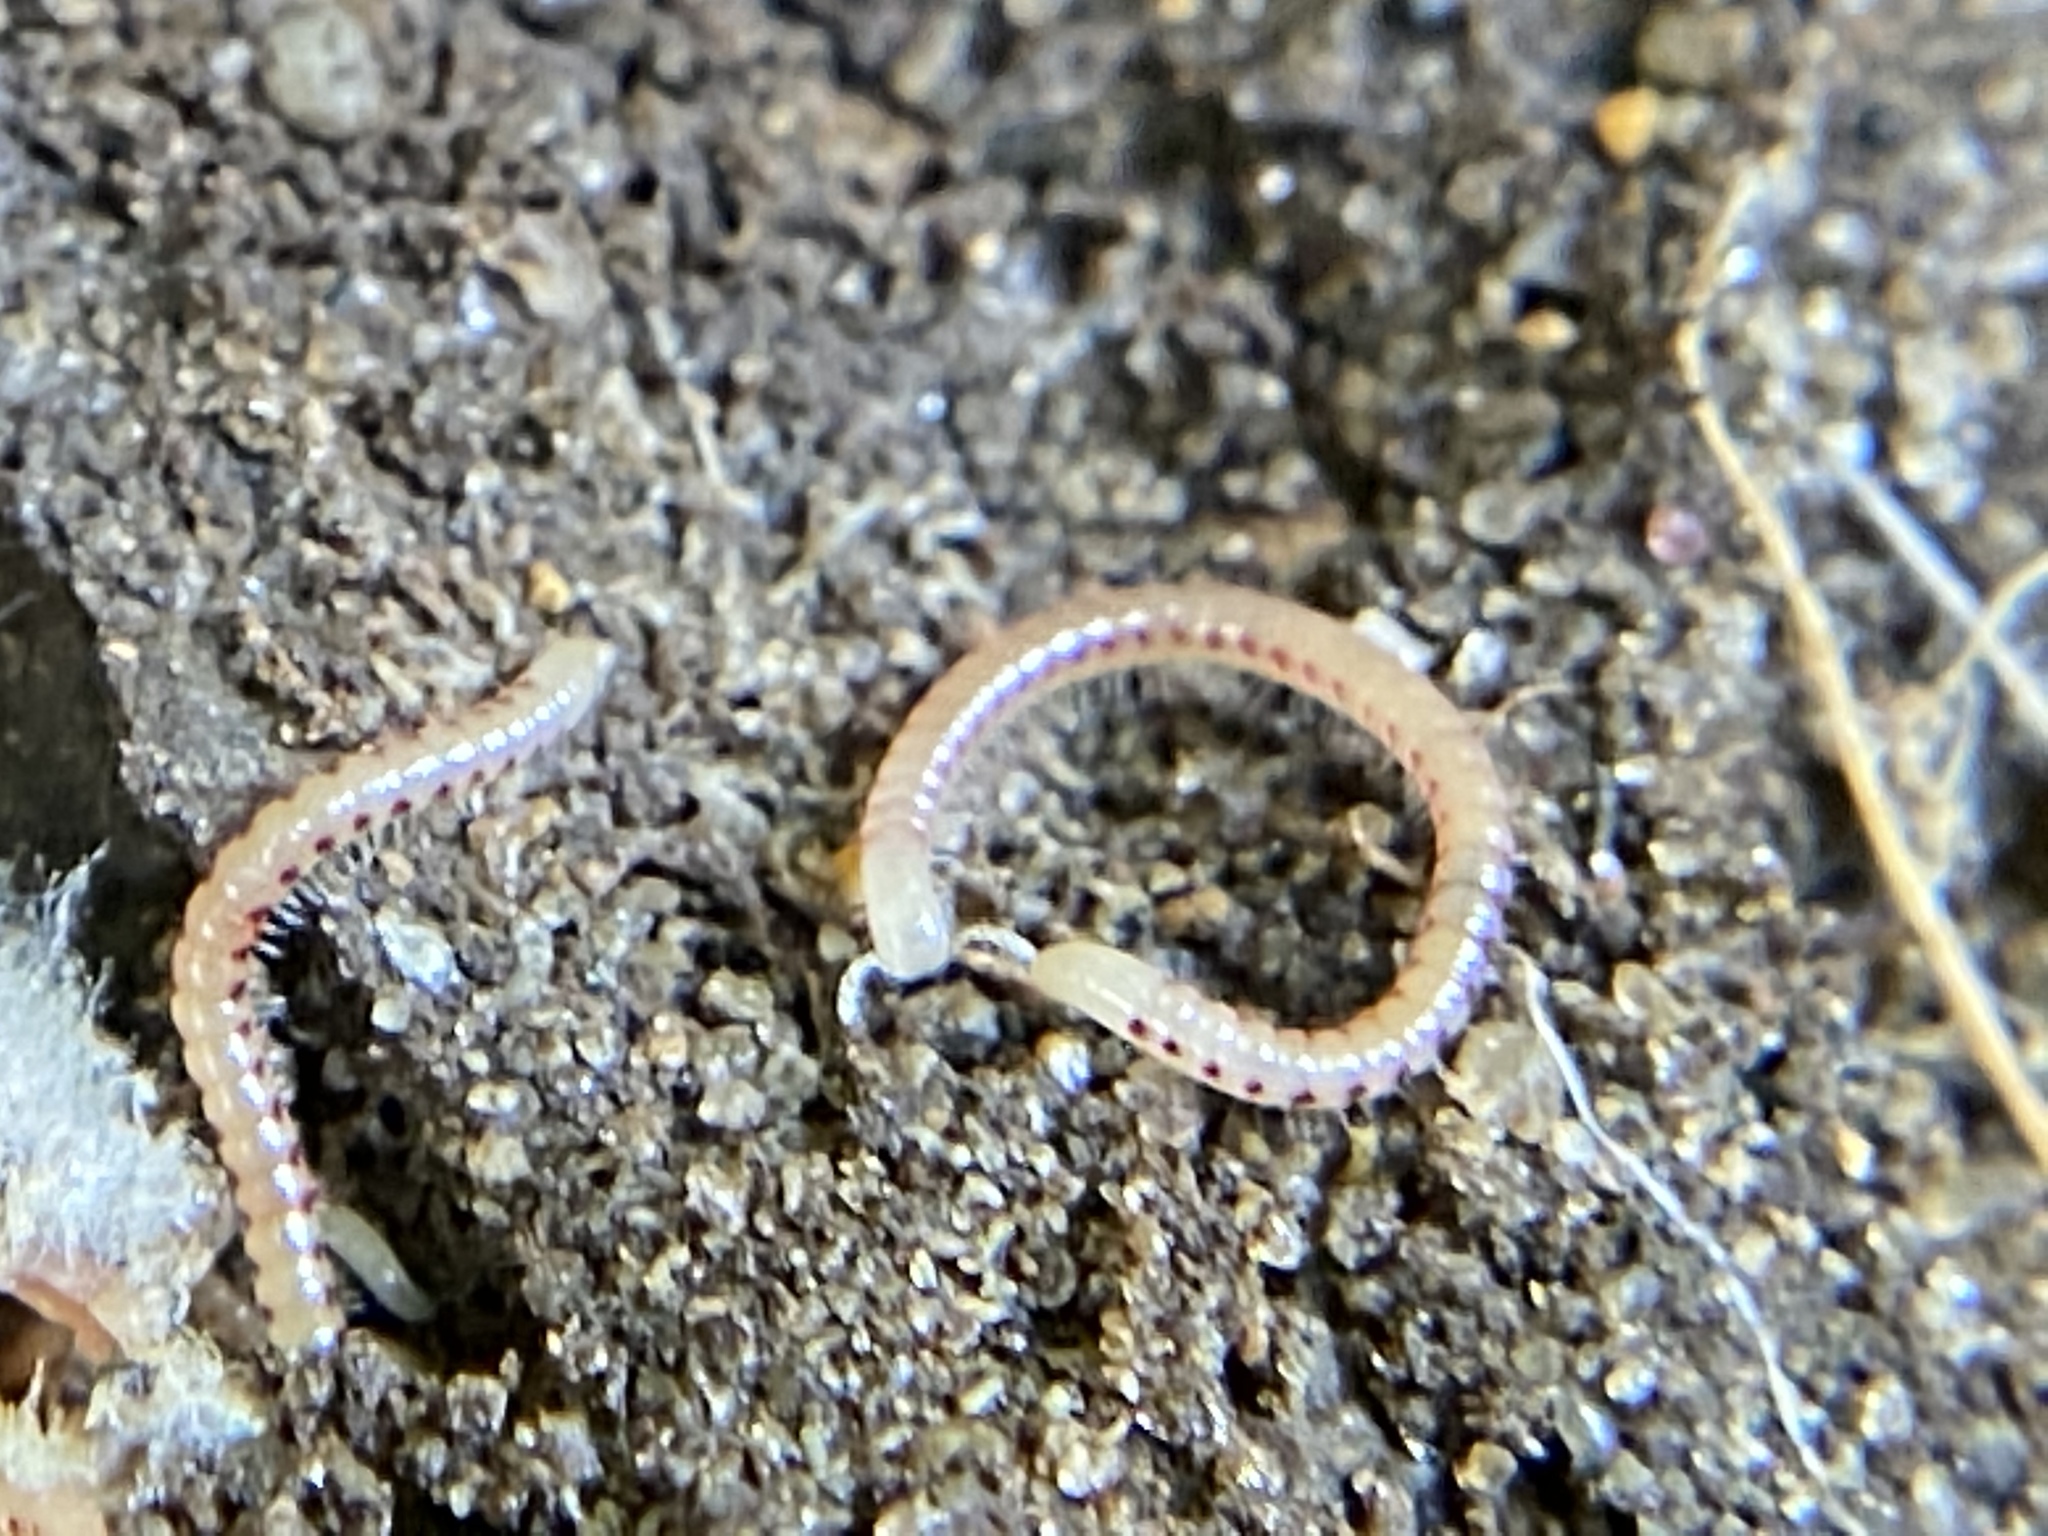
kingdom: Animalia
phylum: Arthropoda
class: Diplopoda
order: Julida
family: Blaniulidae
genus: Blaniulus
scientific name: Blaniulus guttulatus
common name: Spotted snake millipede
